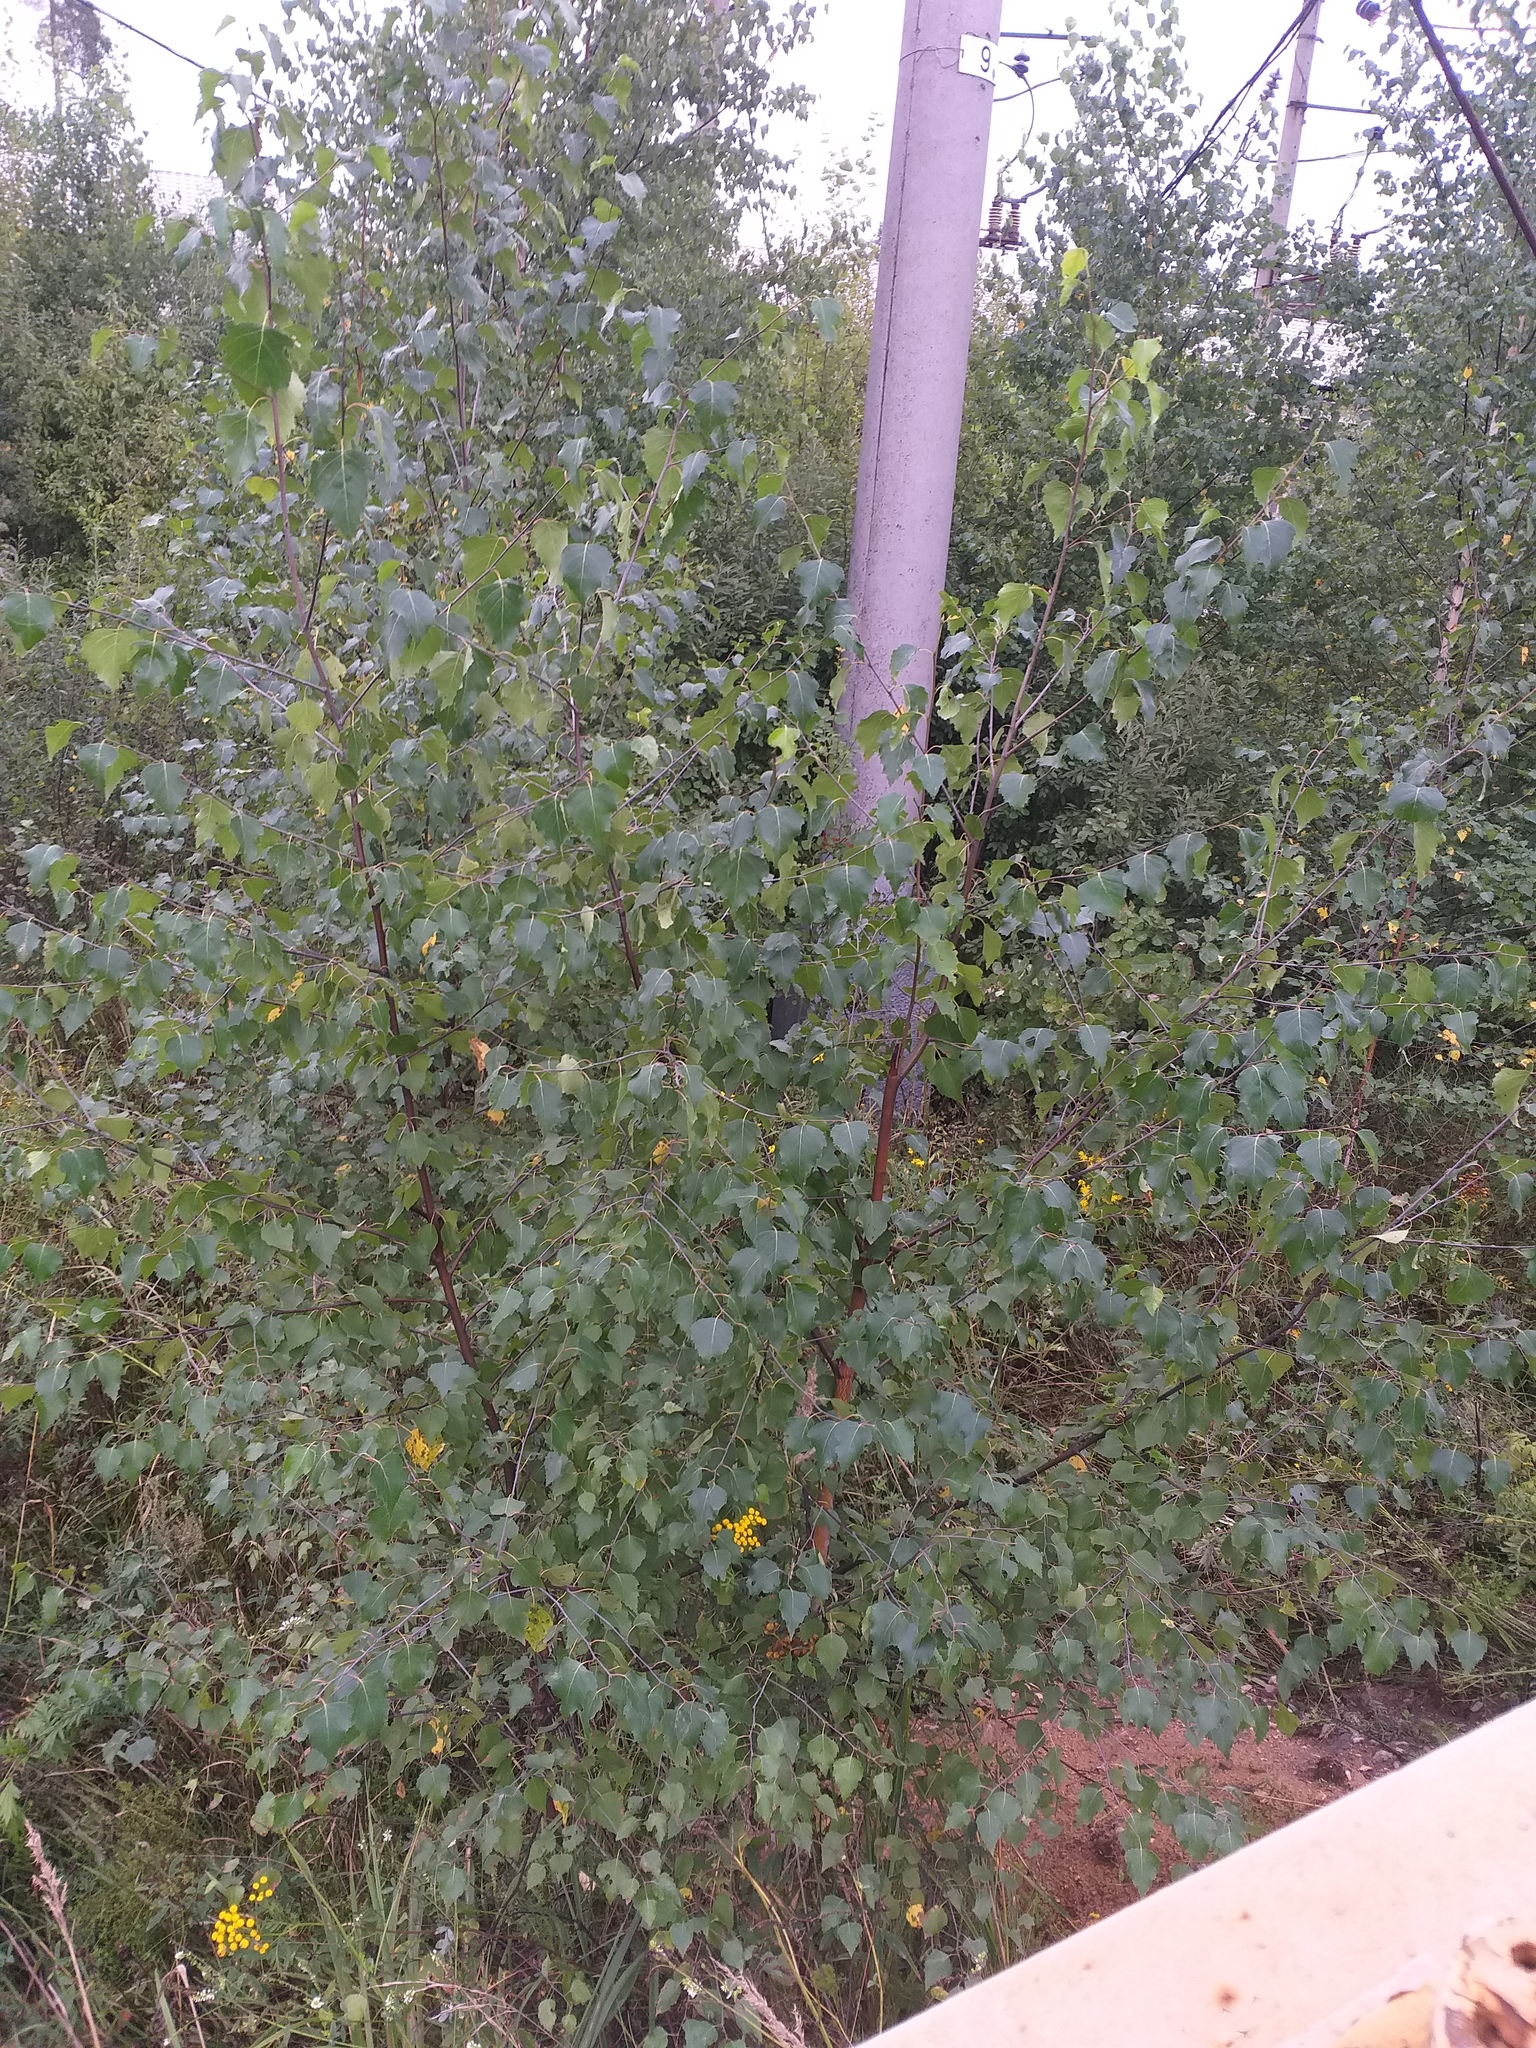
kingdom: Plantae
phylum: Tracheophyta
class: Magnoliopsida
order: Fagales
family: Betulaceae
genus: Betula
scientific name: Betula pendula
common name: Silver birch
